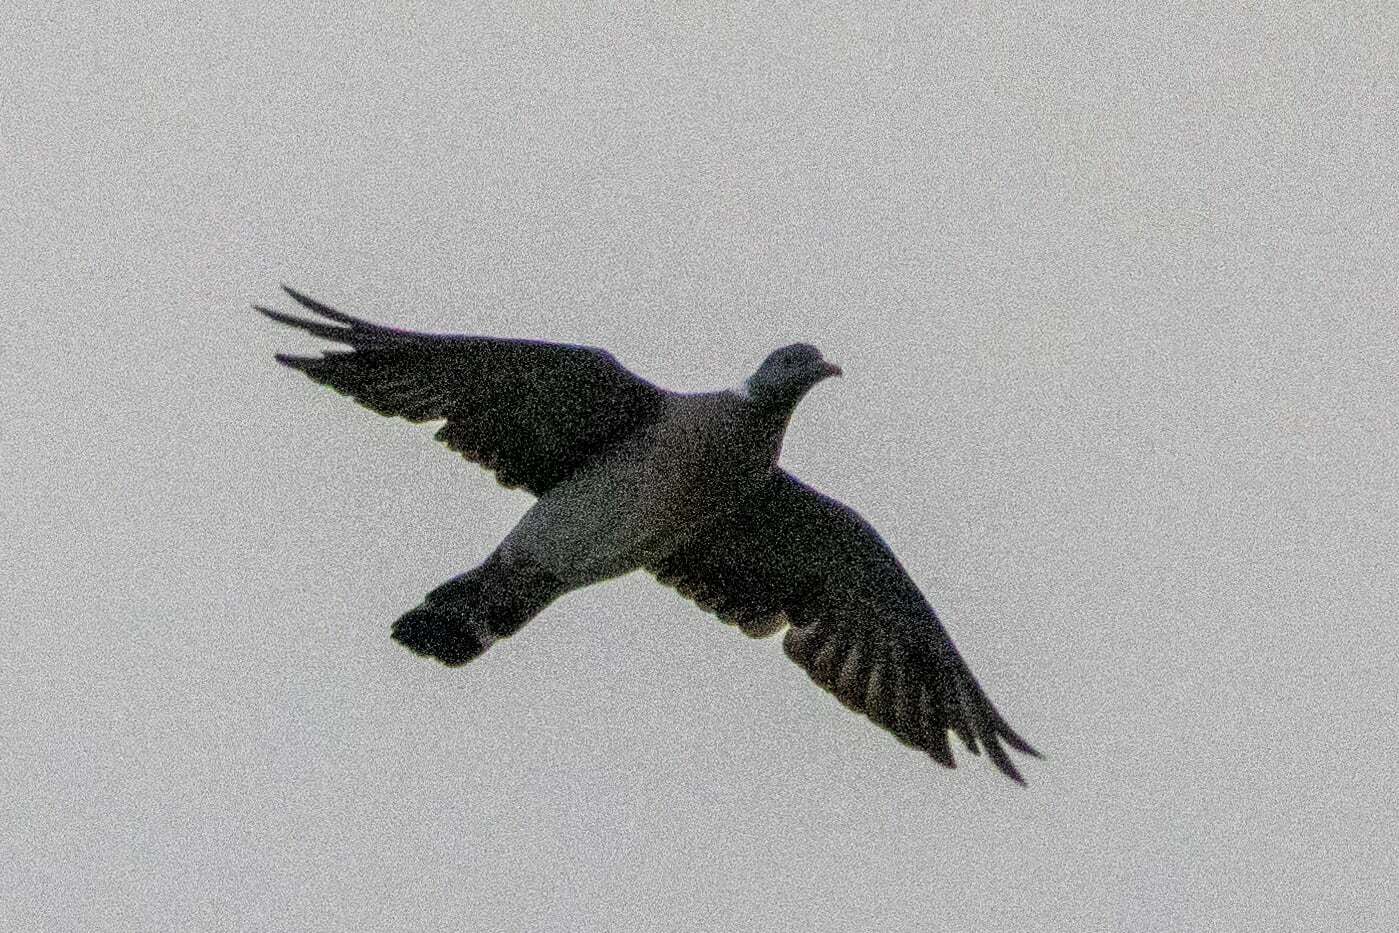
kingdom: Animalia
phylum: Chordata
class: Aves
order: Columbiformes
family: Columbidae
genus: Columba
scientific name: Columba palumbus
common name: Common wood pigeon
